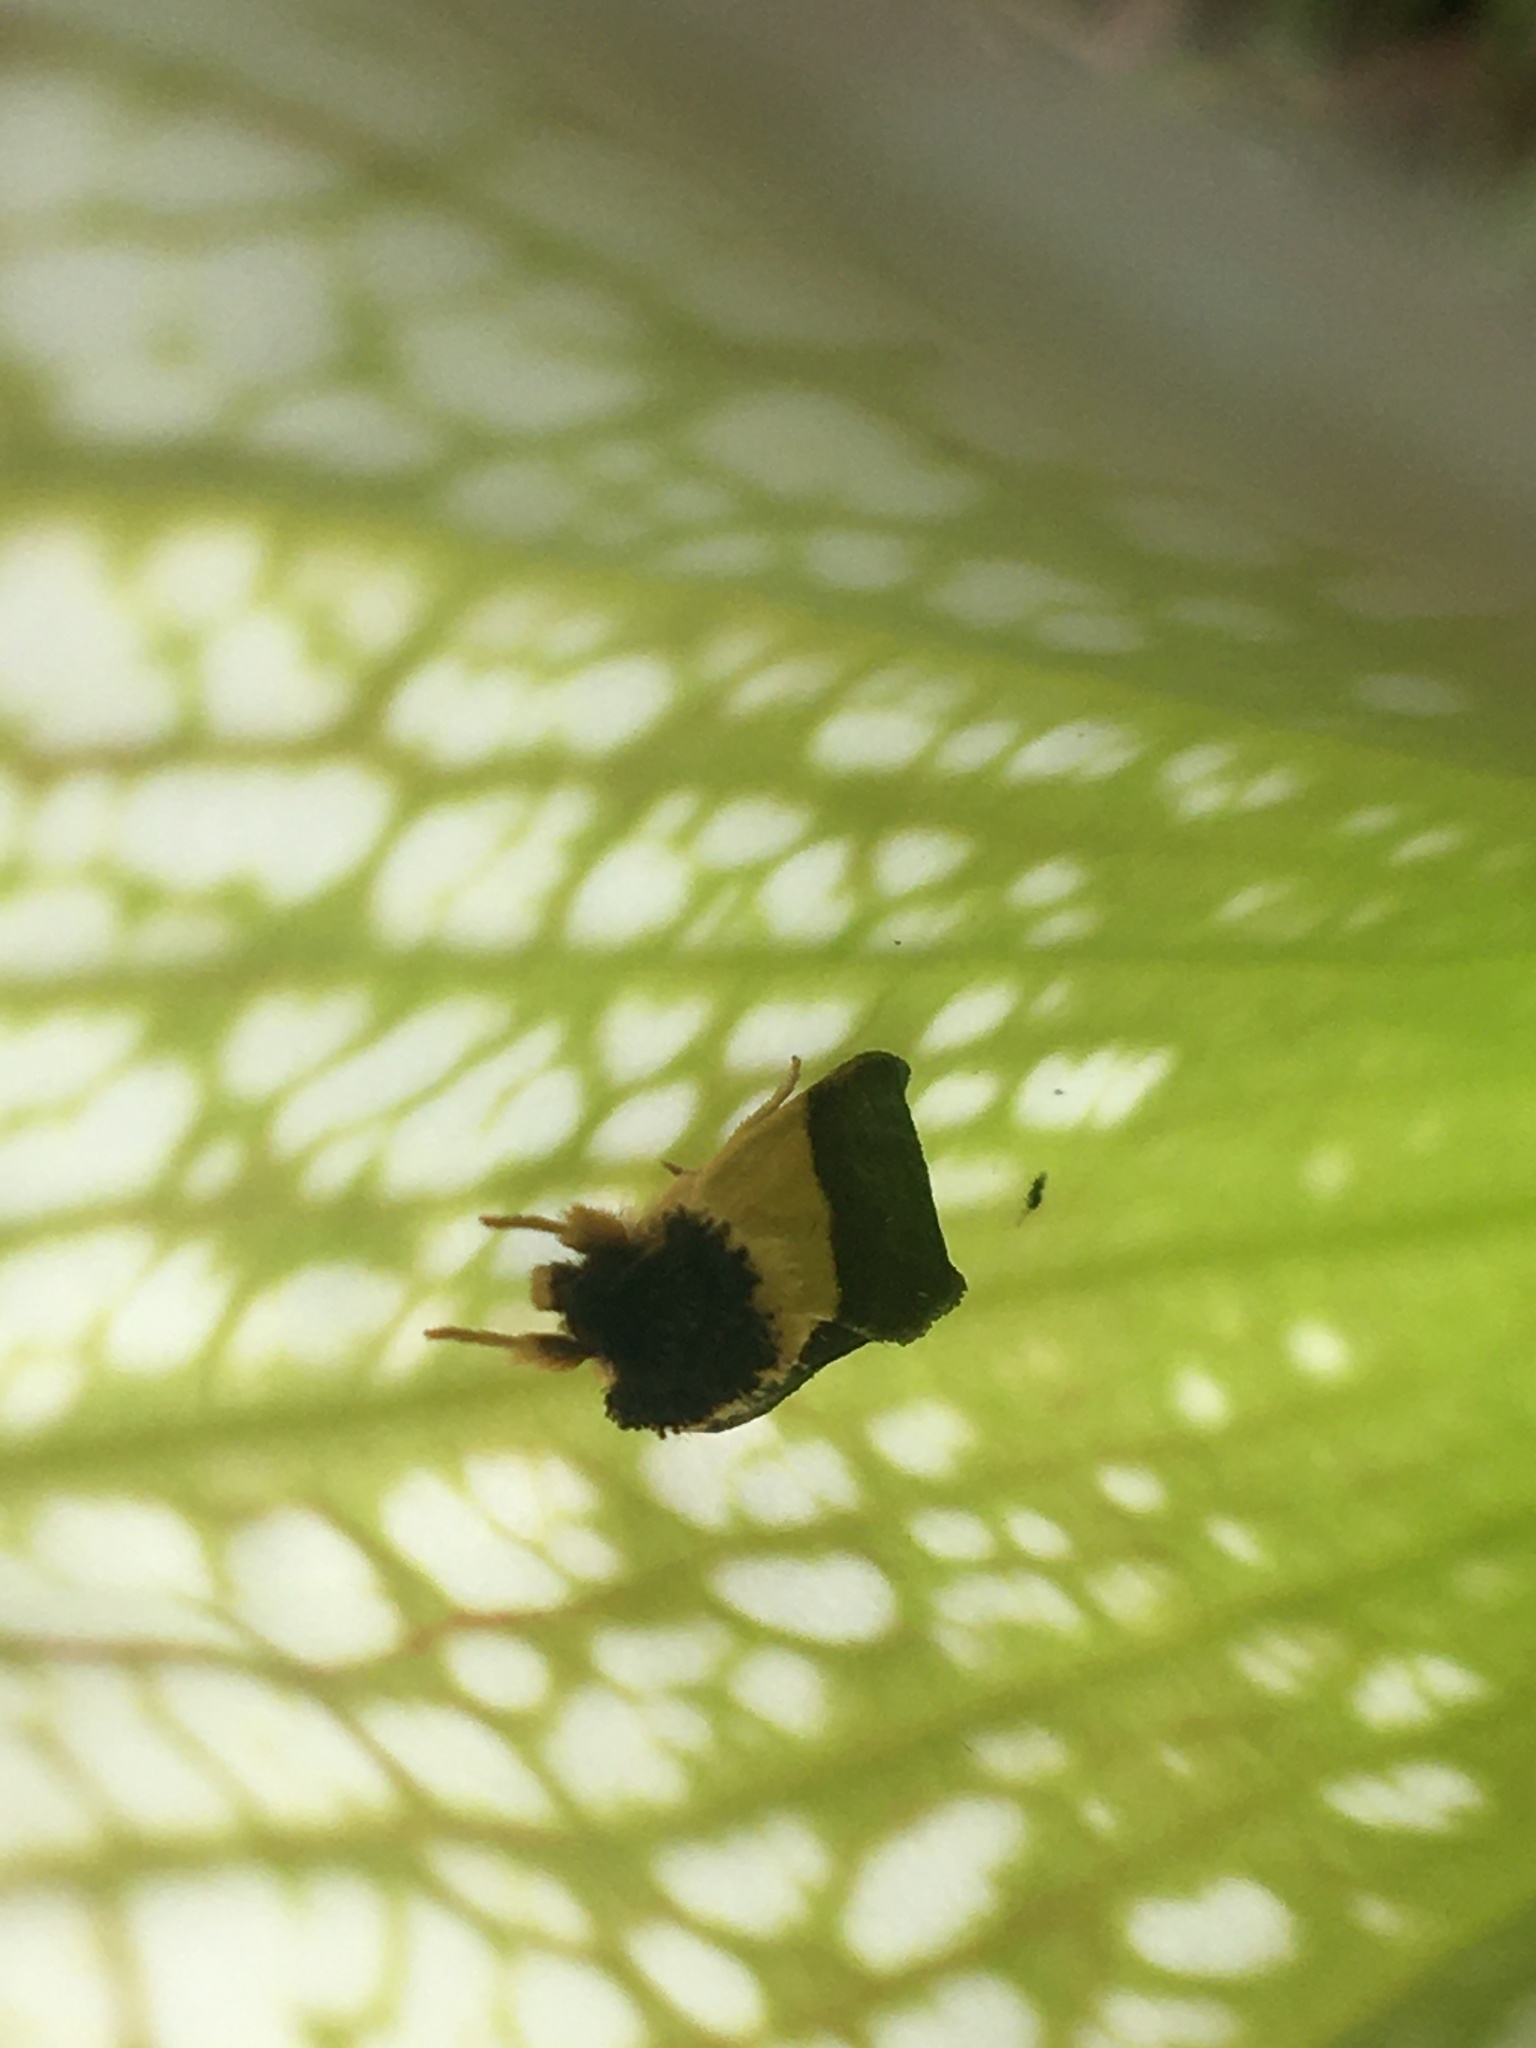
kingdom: Animalia
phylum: Arthropoda
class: Insecta
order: Lepidoptera
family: Noctuidae
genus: Exyra
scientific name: Exyra semicrocea
